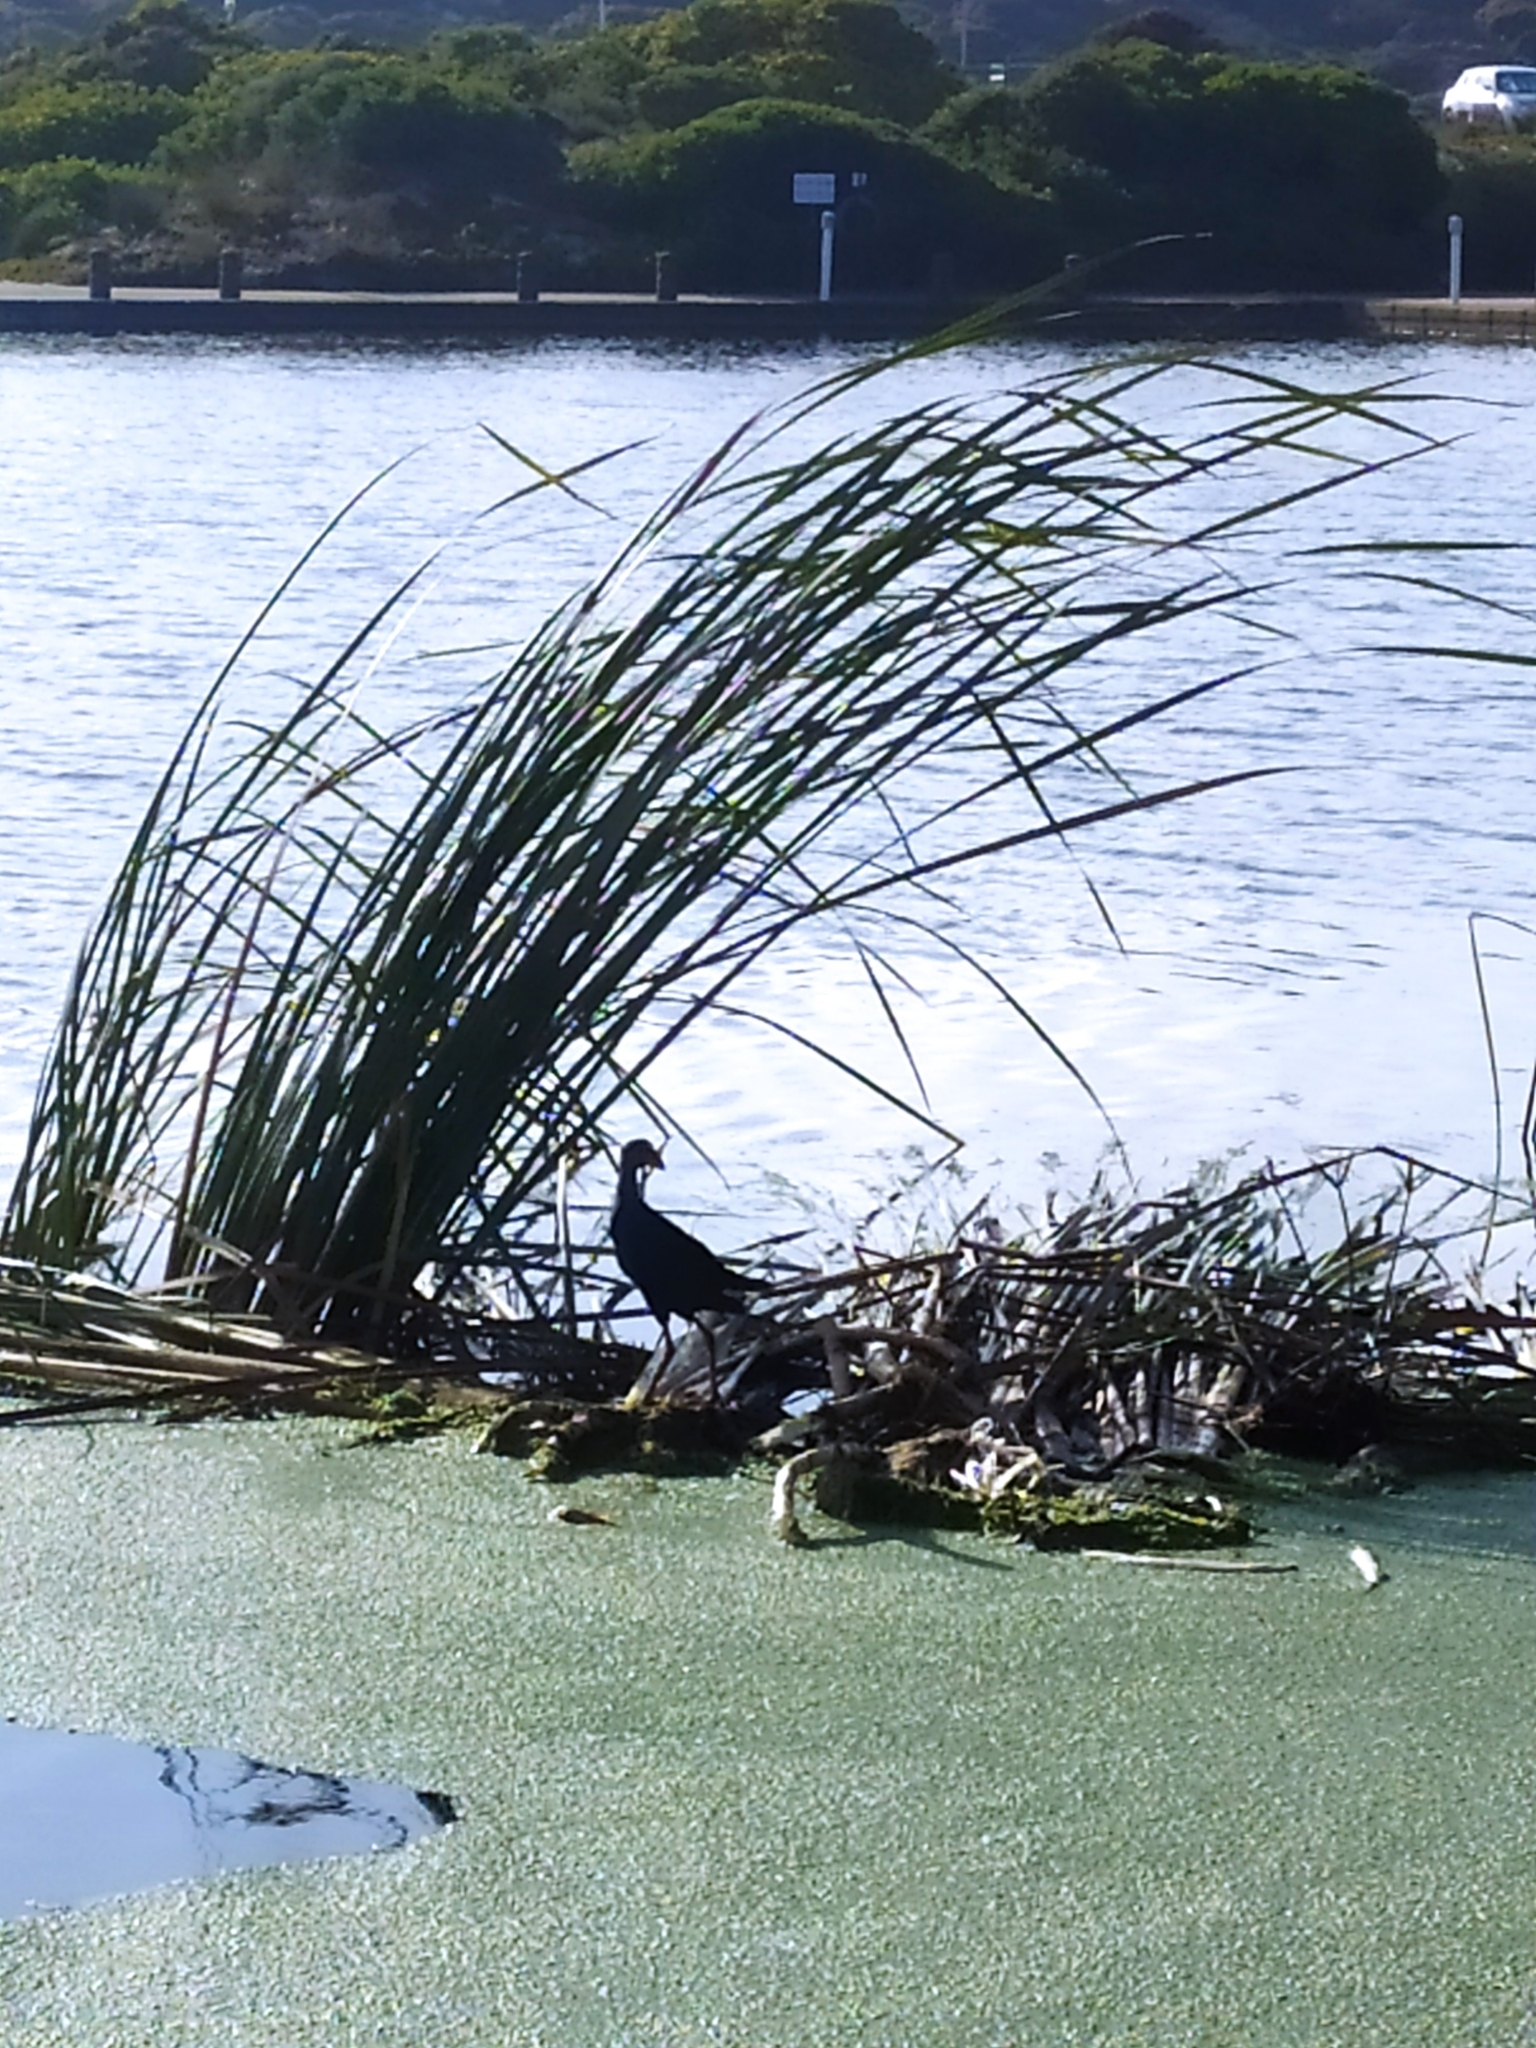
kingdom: Animalia
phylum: Chordata
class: Aves
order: Gruiformes
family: Rallidae
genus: Porphyrio
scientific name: Porphyrio porphyrio
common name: Purple swamphen
